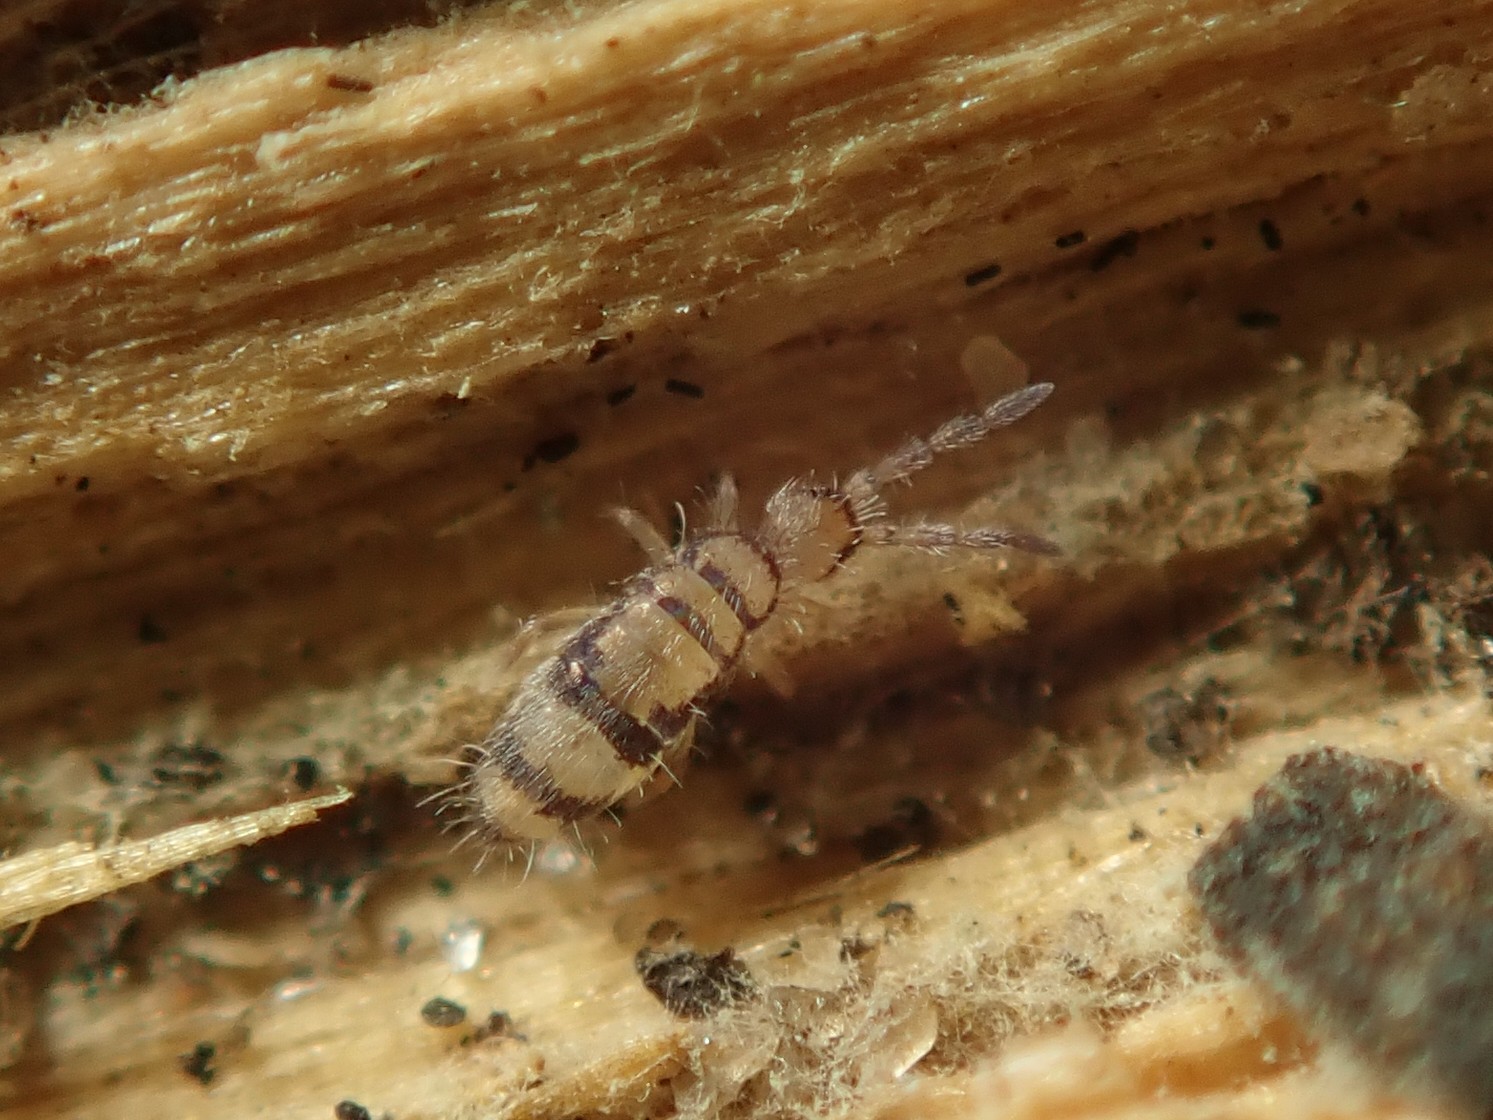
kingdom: Animalia
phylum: Arthropoda
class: Collembola
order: Entomobryomorpha
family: Entomobryidae
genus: Entomobrya
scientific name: Entomobrya corticalis
